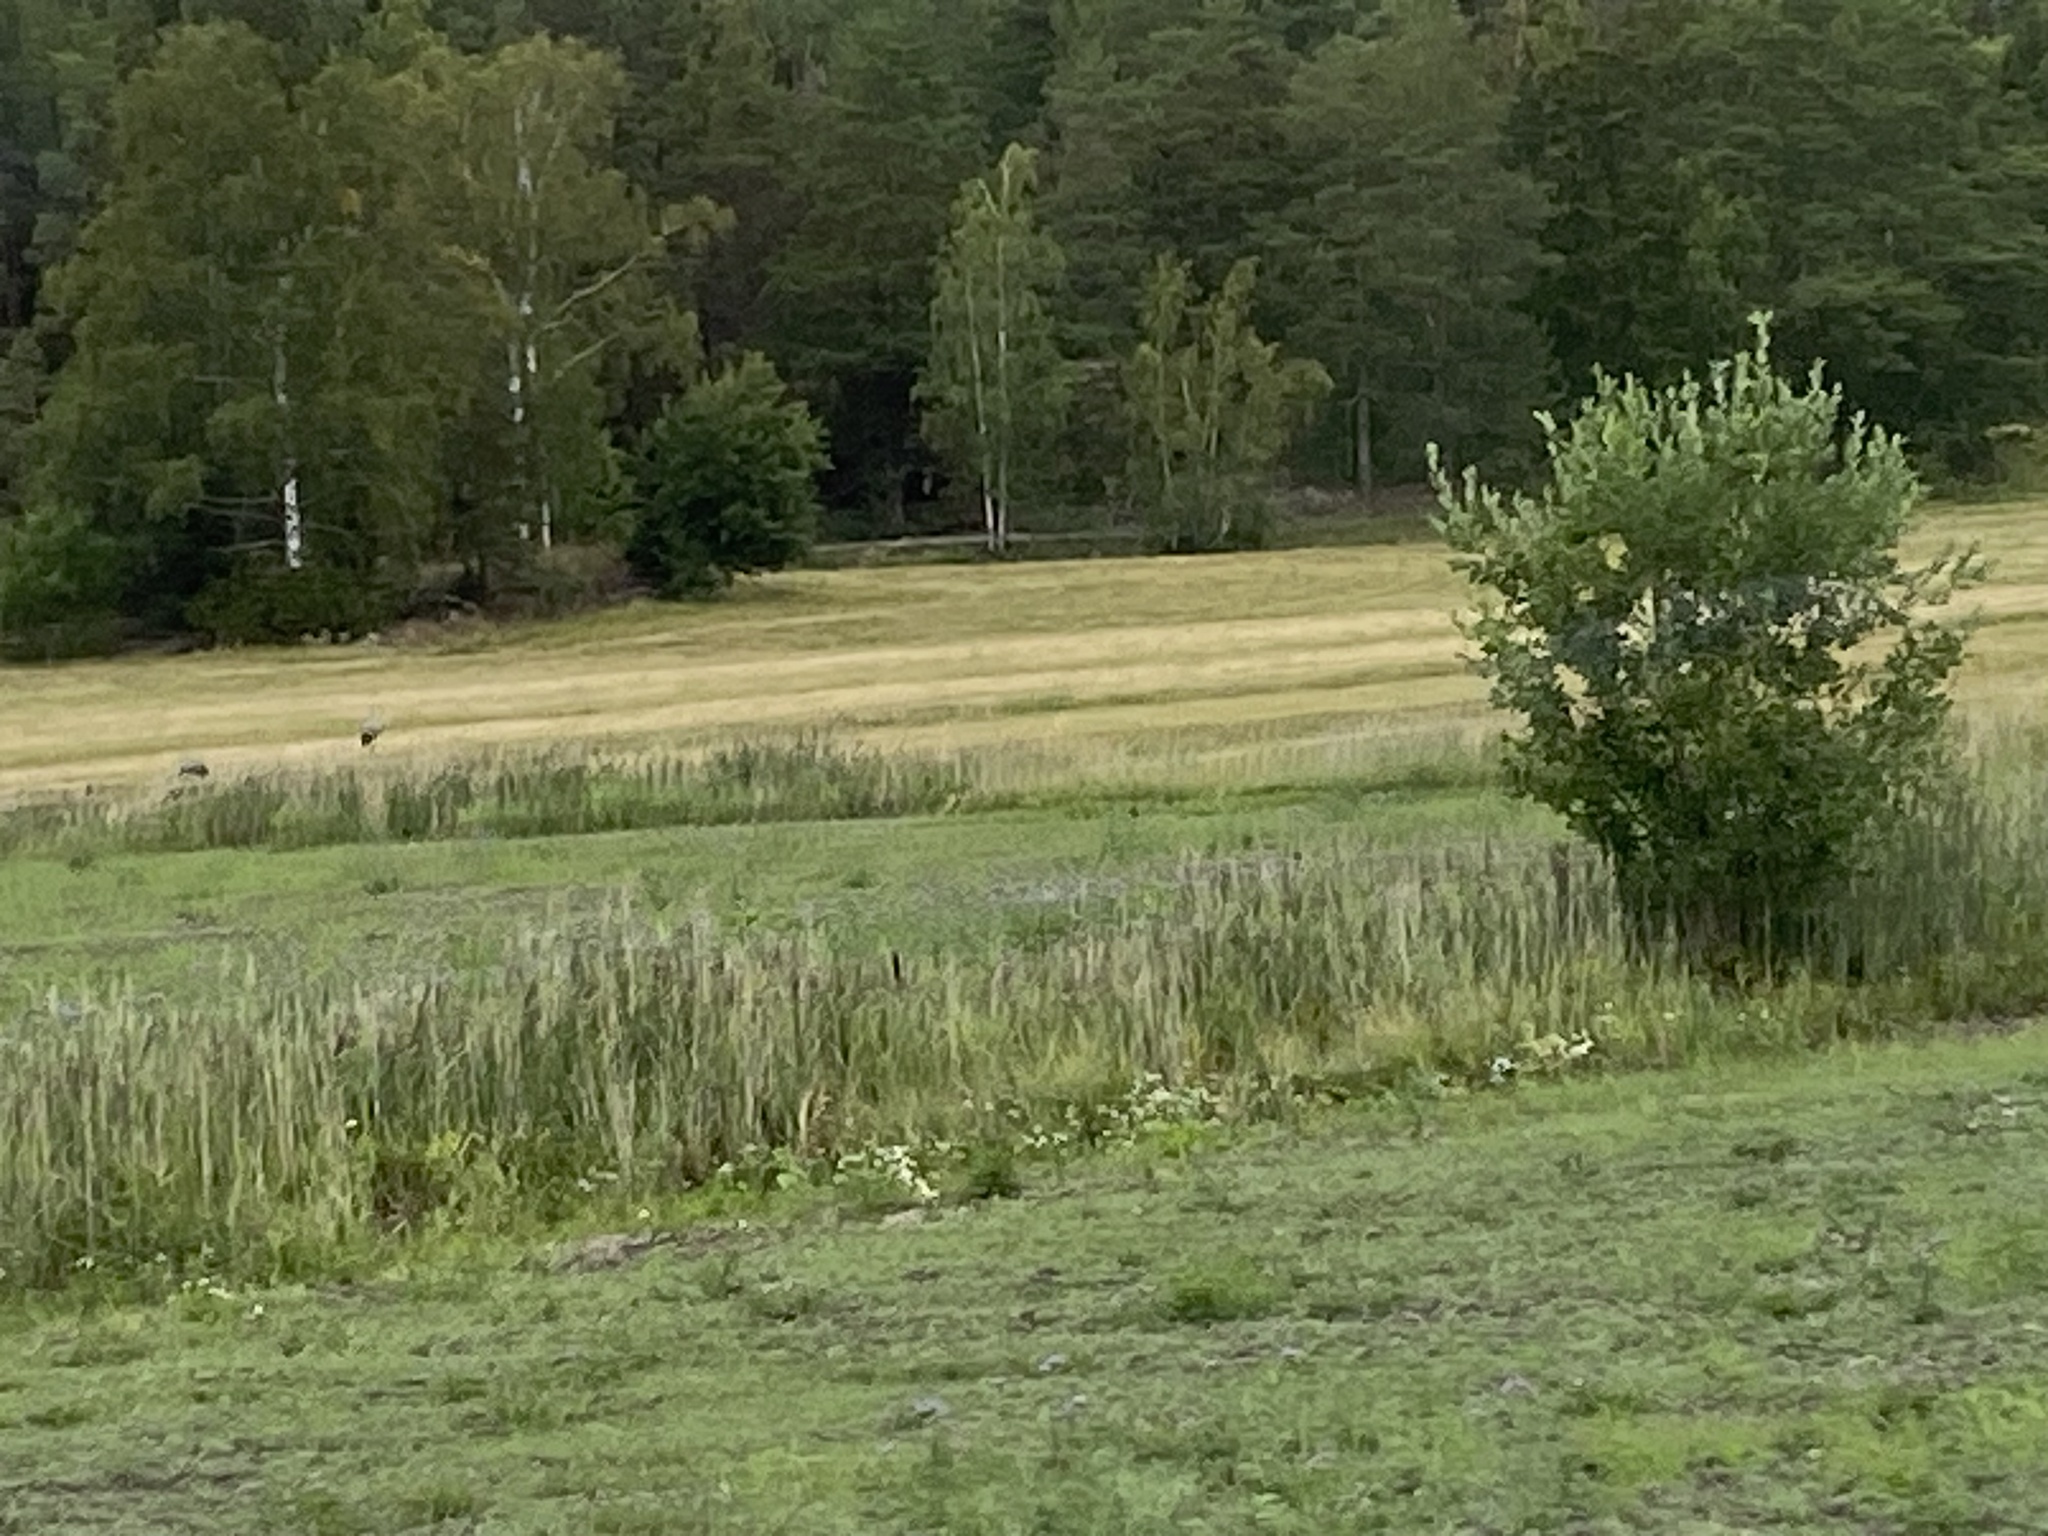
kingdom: Animalia
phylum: Chordata
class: Aves
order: Gruiformes
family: Gruidae
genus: Grus
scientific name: Grus grus
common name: Common crane
